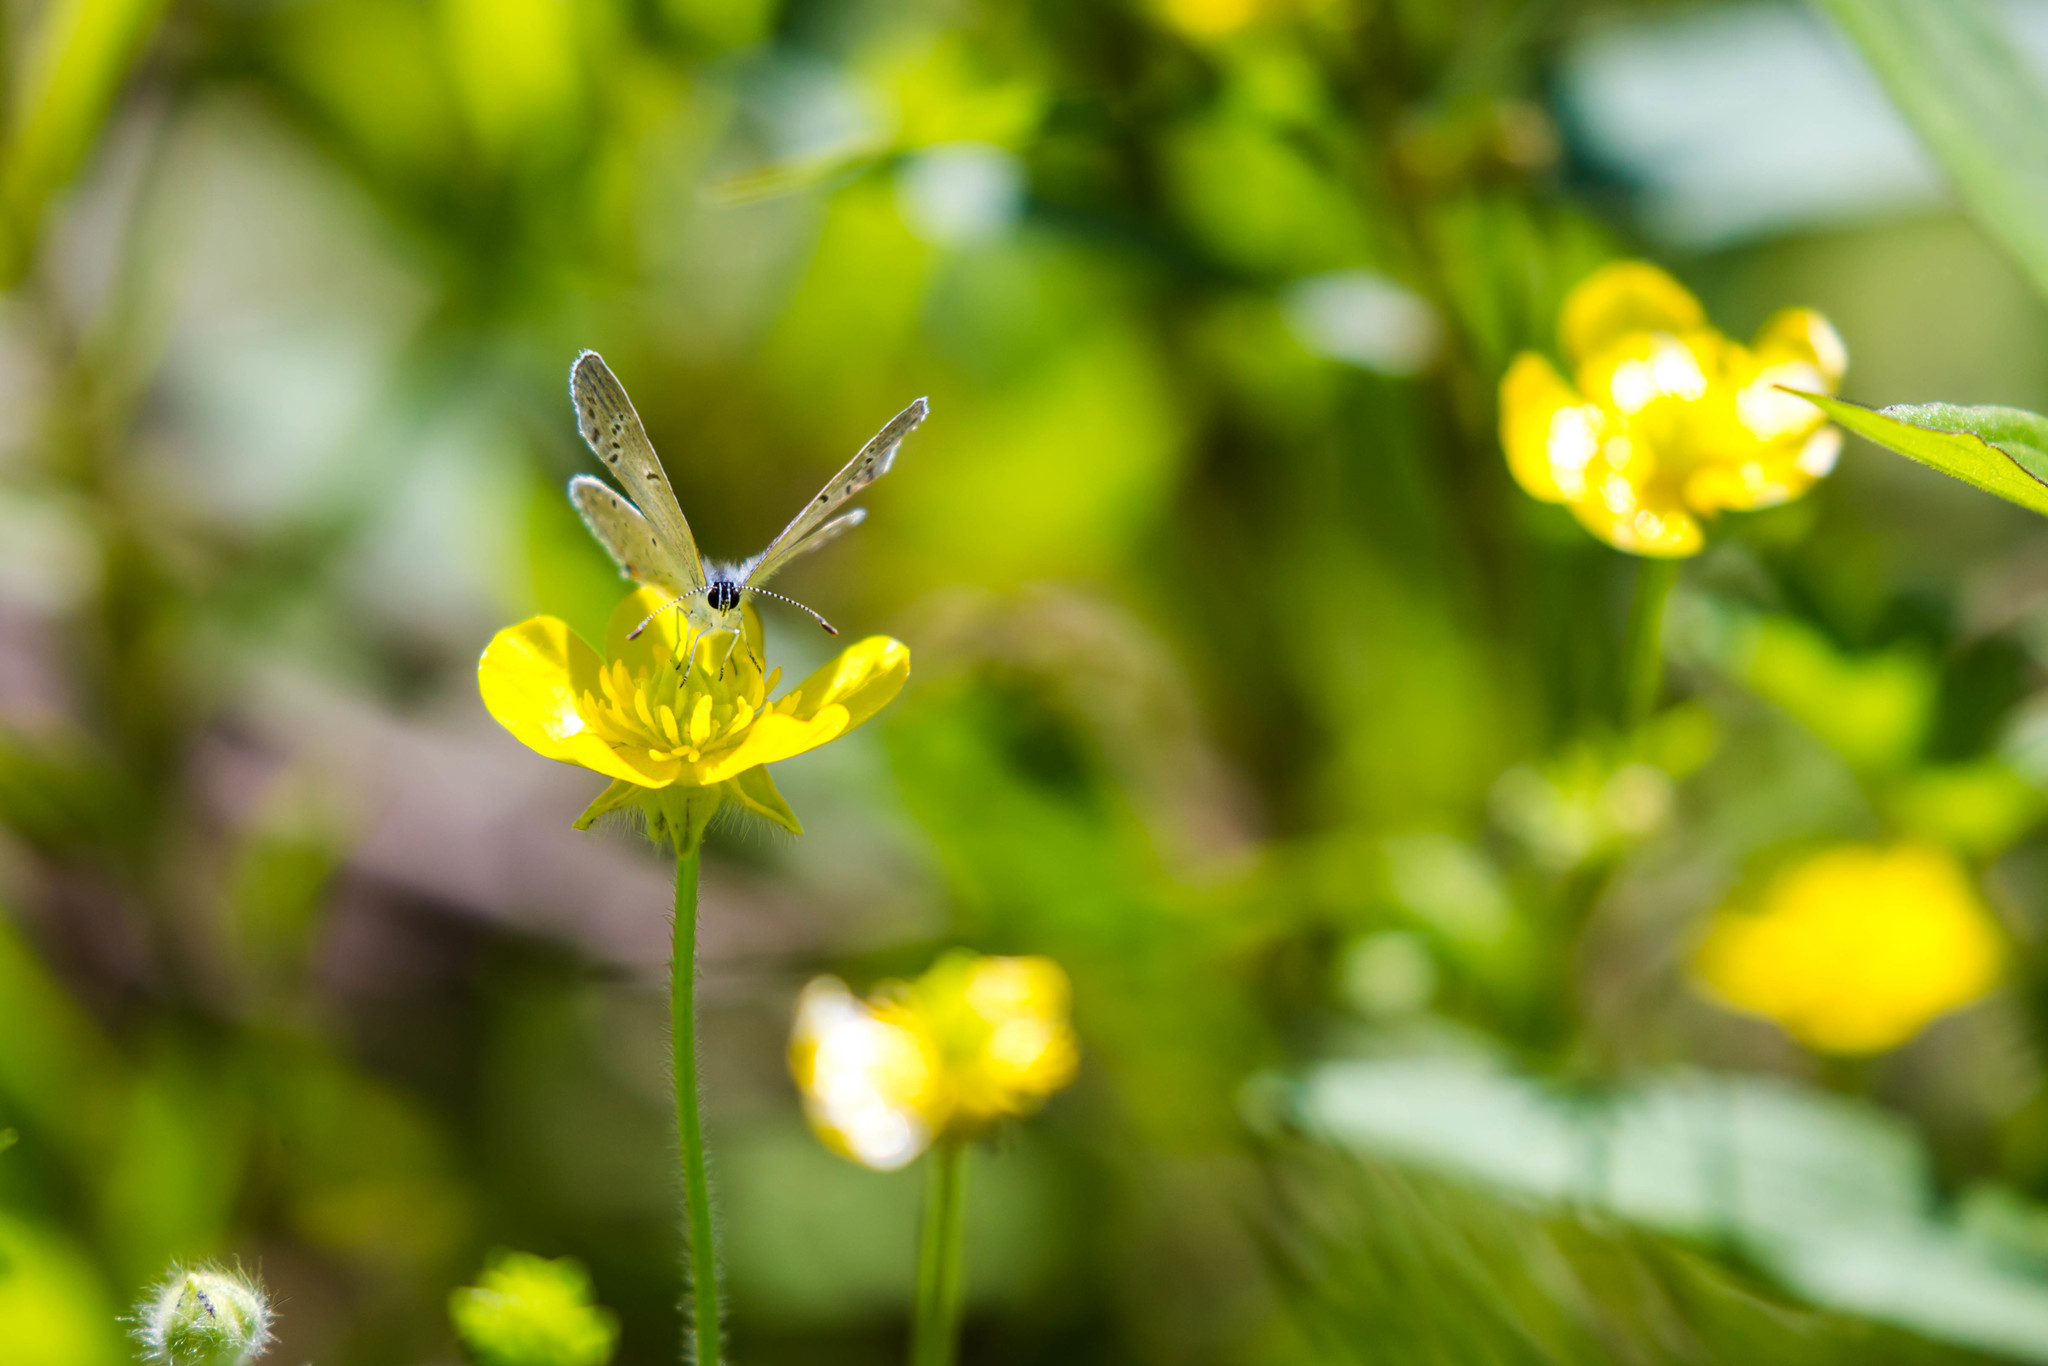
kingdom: Animalia
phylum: Arthropoda
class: Insecta
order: Lepidoptera
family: Lycaenidae
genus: Elkalyce
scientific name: Elkalyce comyntas
